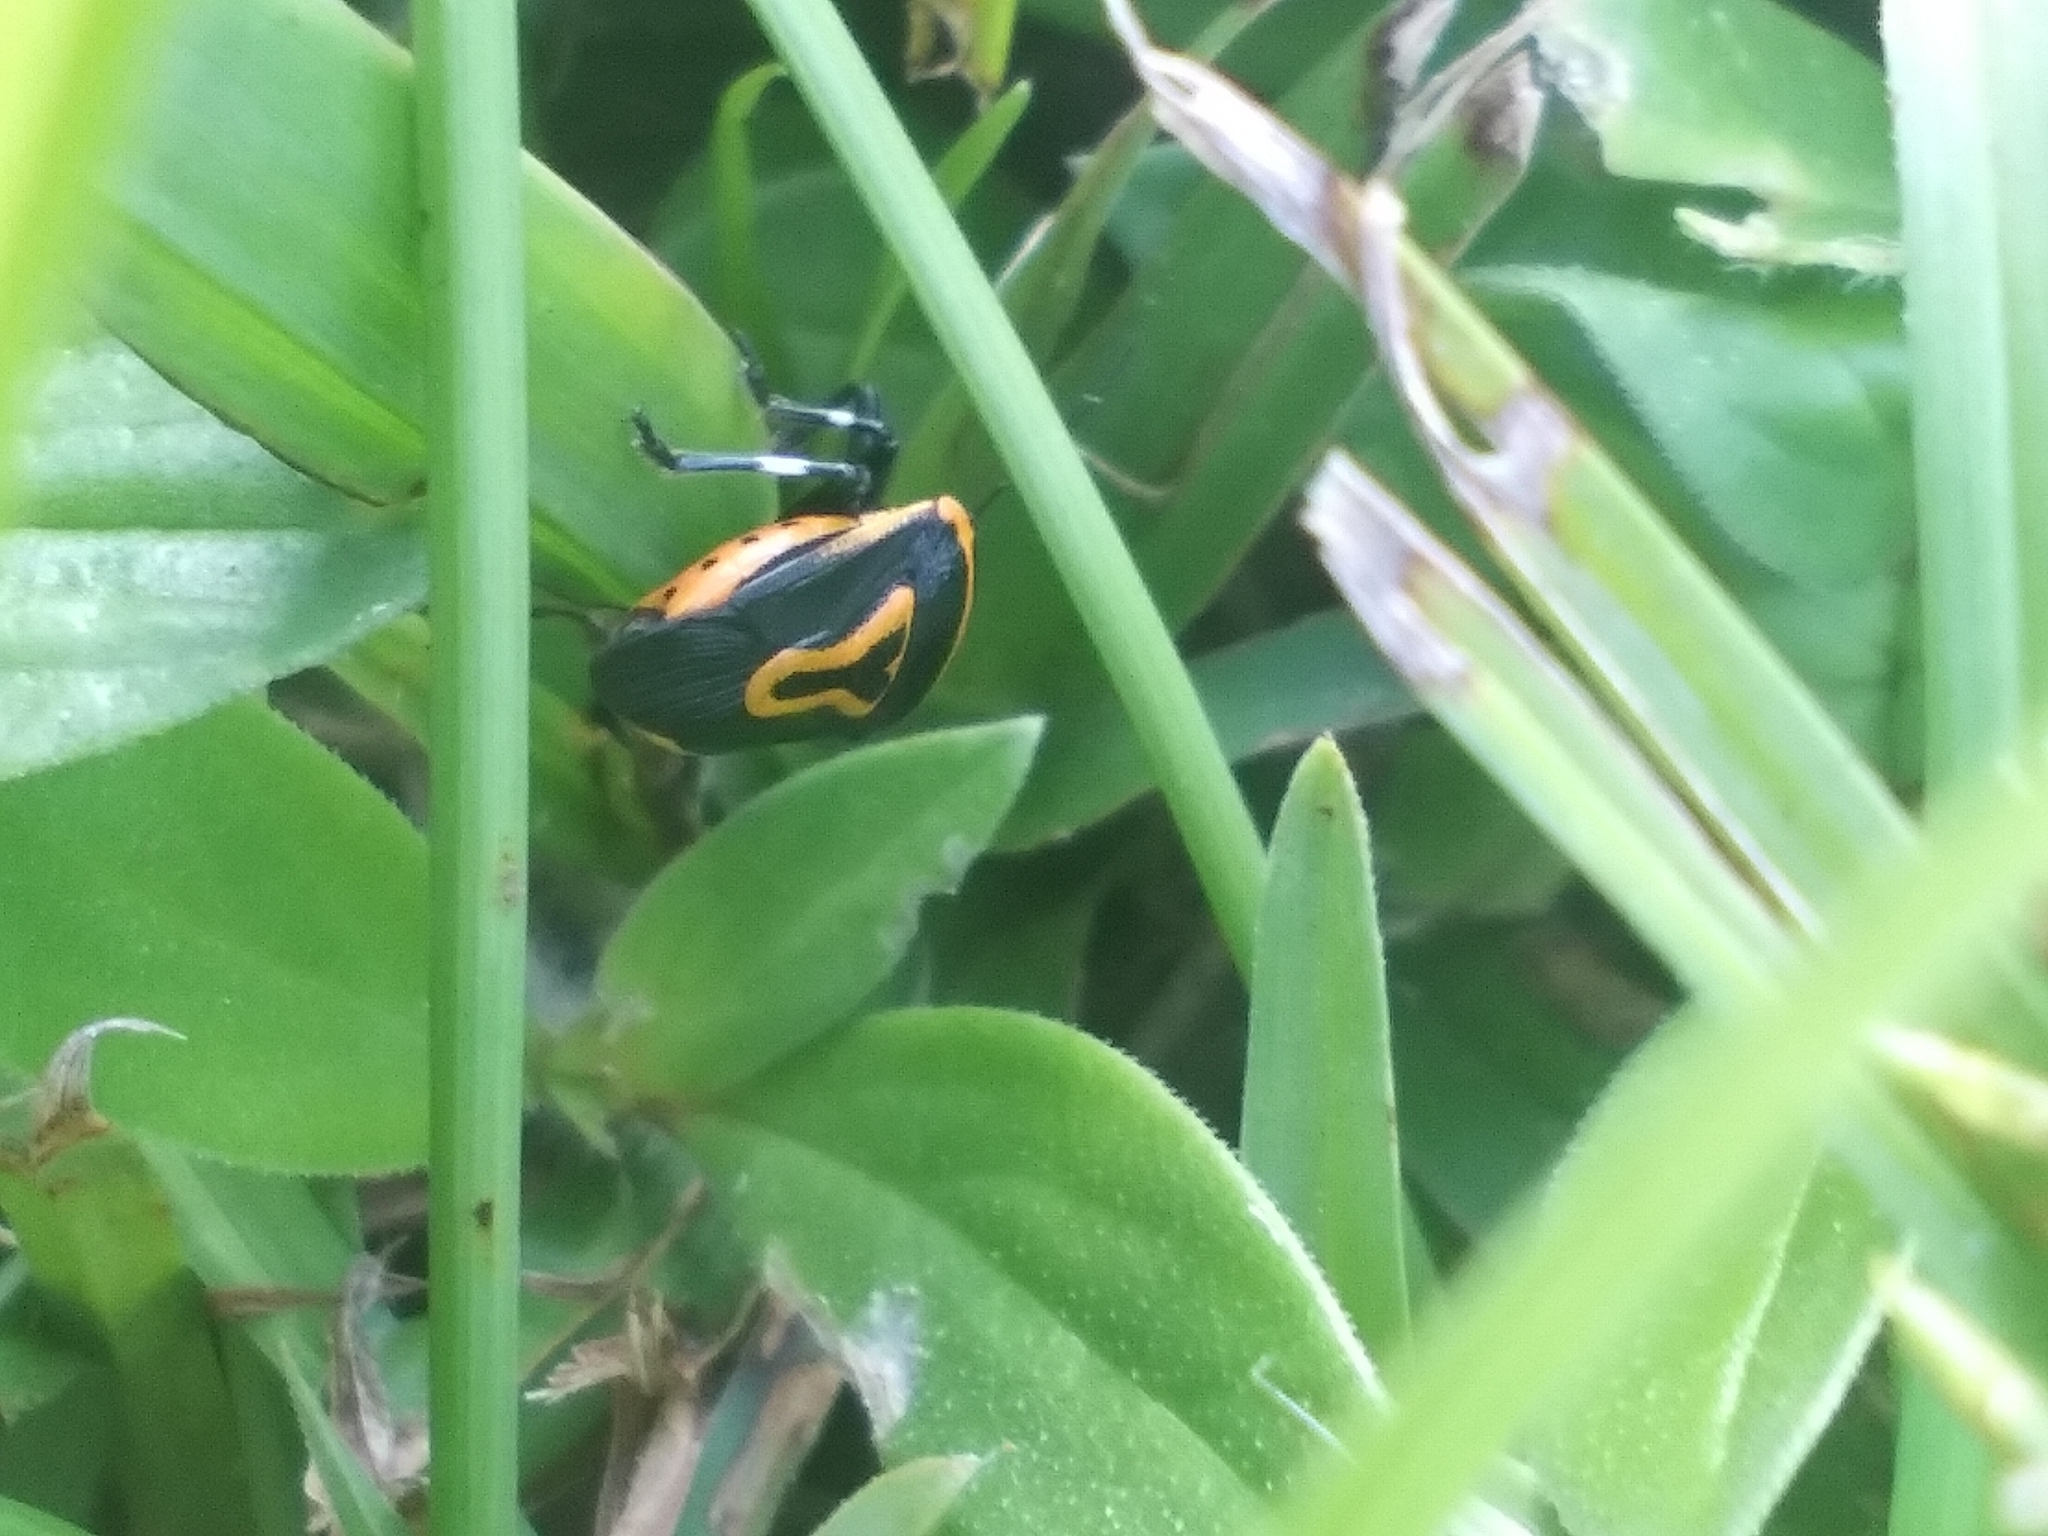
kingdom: Animalia
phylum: Arthropoda
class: Insecta
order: Hemiptera
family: Pentatomidae
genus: Perillus
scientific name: Perillus bioculatus
